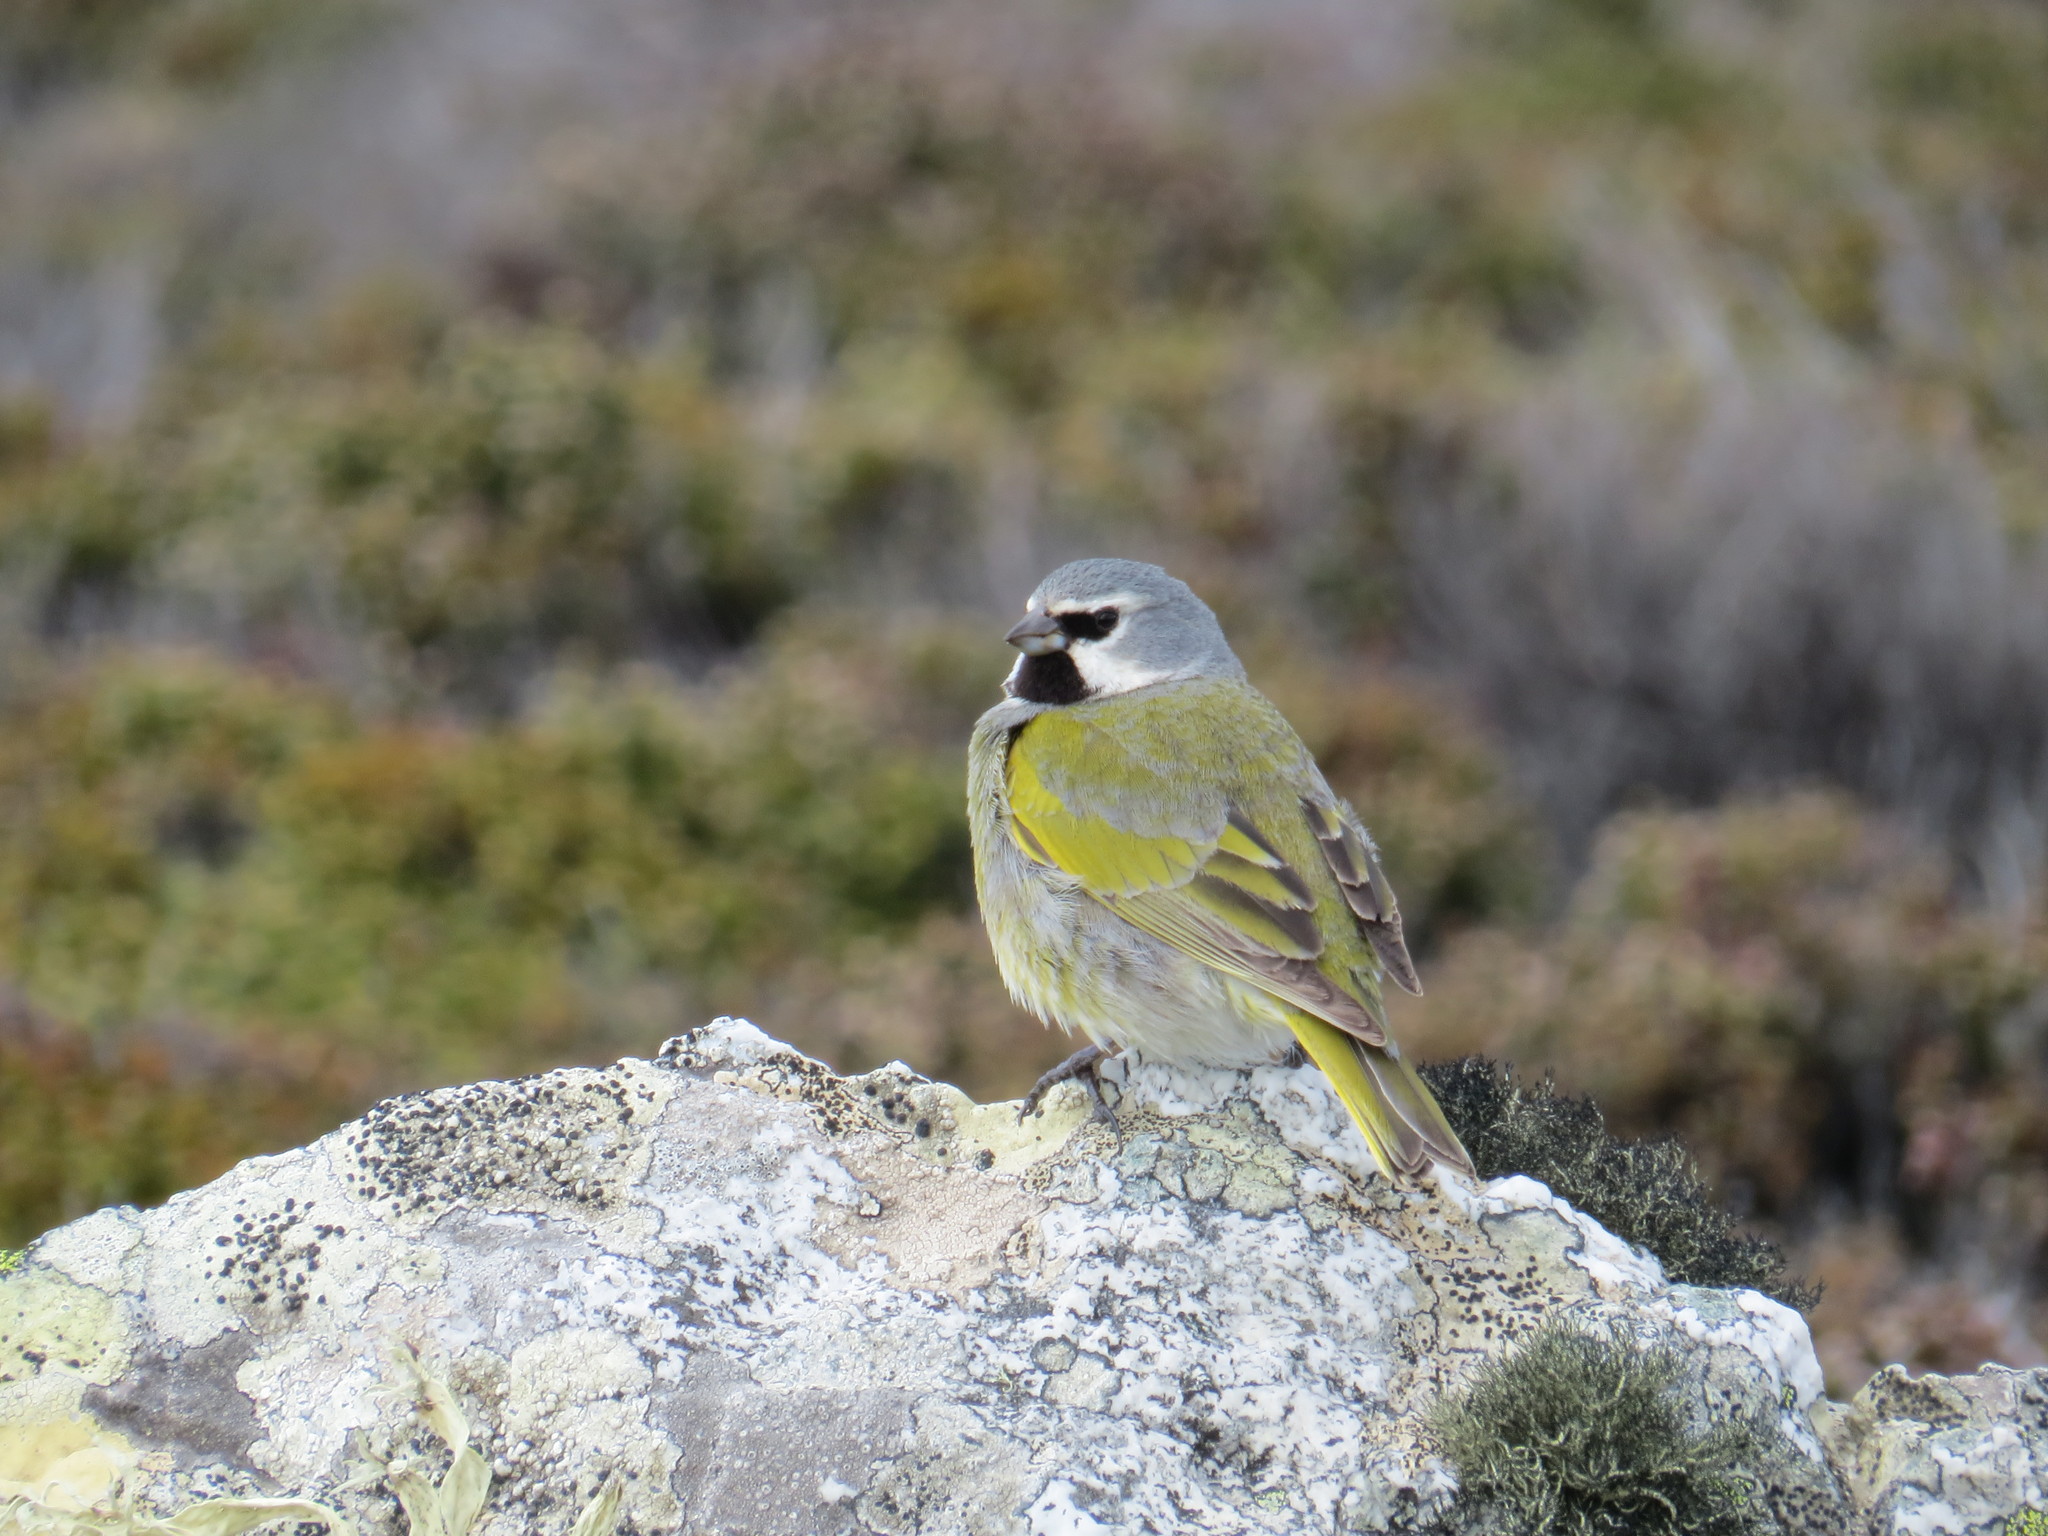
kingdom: Animalia
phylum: Chordata
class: Aves
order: Passeriformes
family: Thraupidae
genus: Melanodera
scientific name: Melanodera melanodera
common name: White-bridled finch
